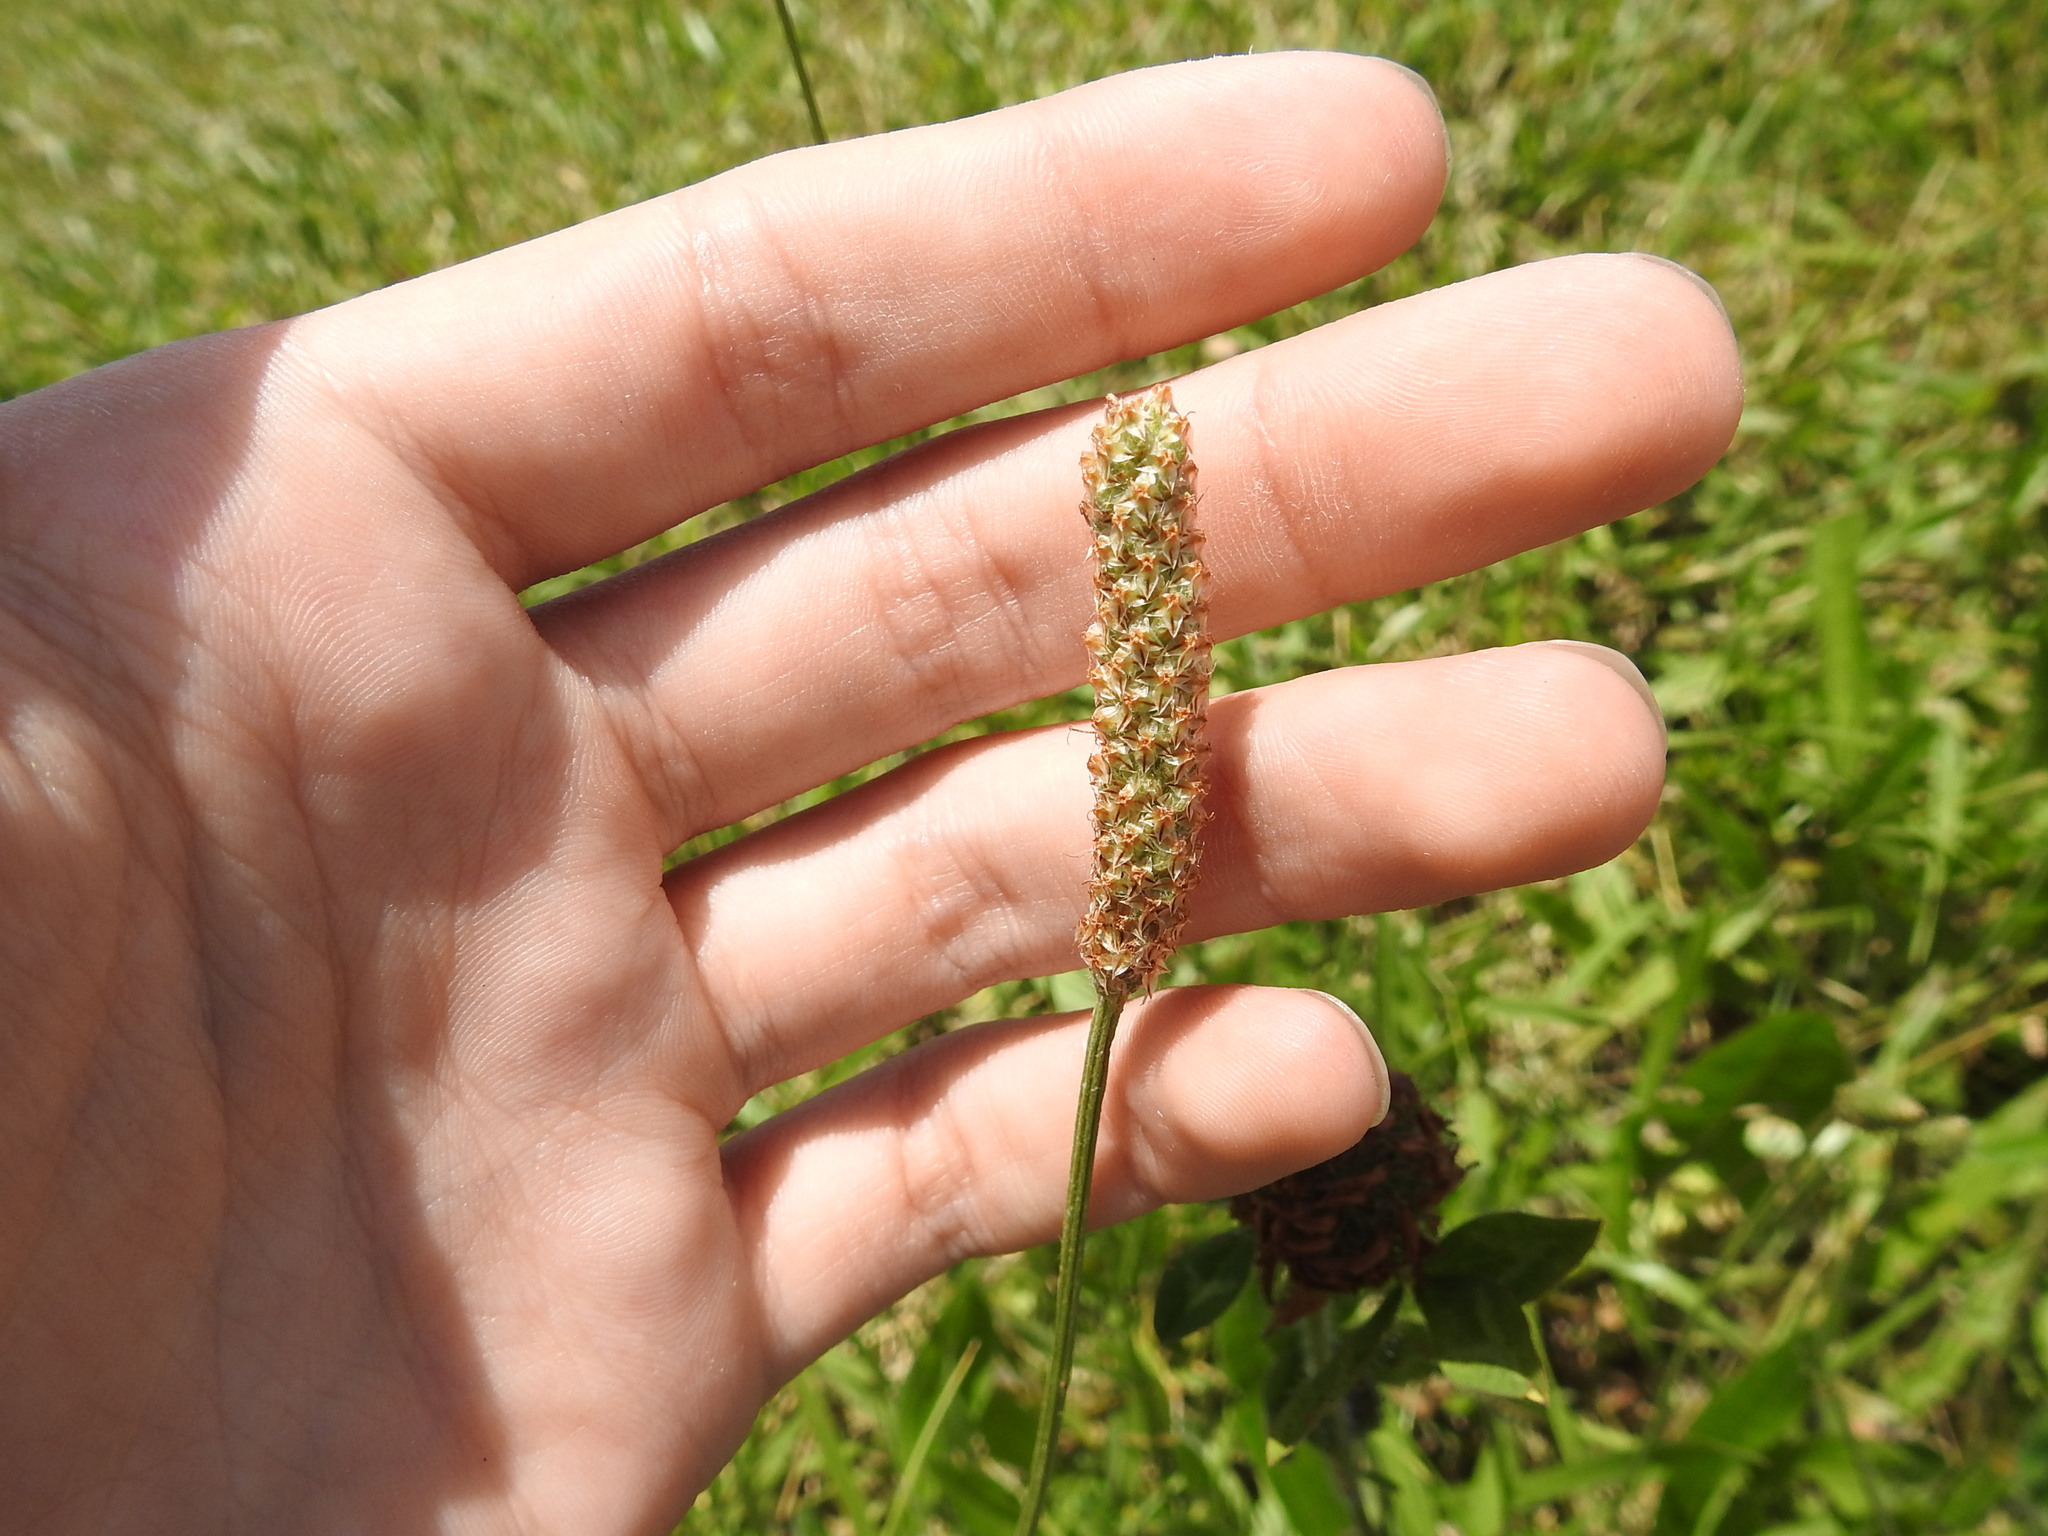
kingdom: Plantae
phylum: Tracheophyta
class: Magnoliopsida
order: Lamiales
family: Plantaginaceae
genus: Plantago
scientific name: Plantago lanceolata
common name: Ribwort plantain
